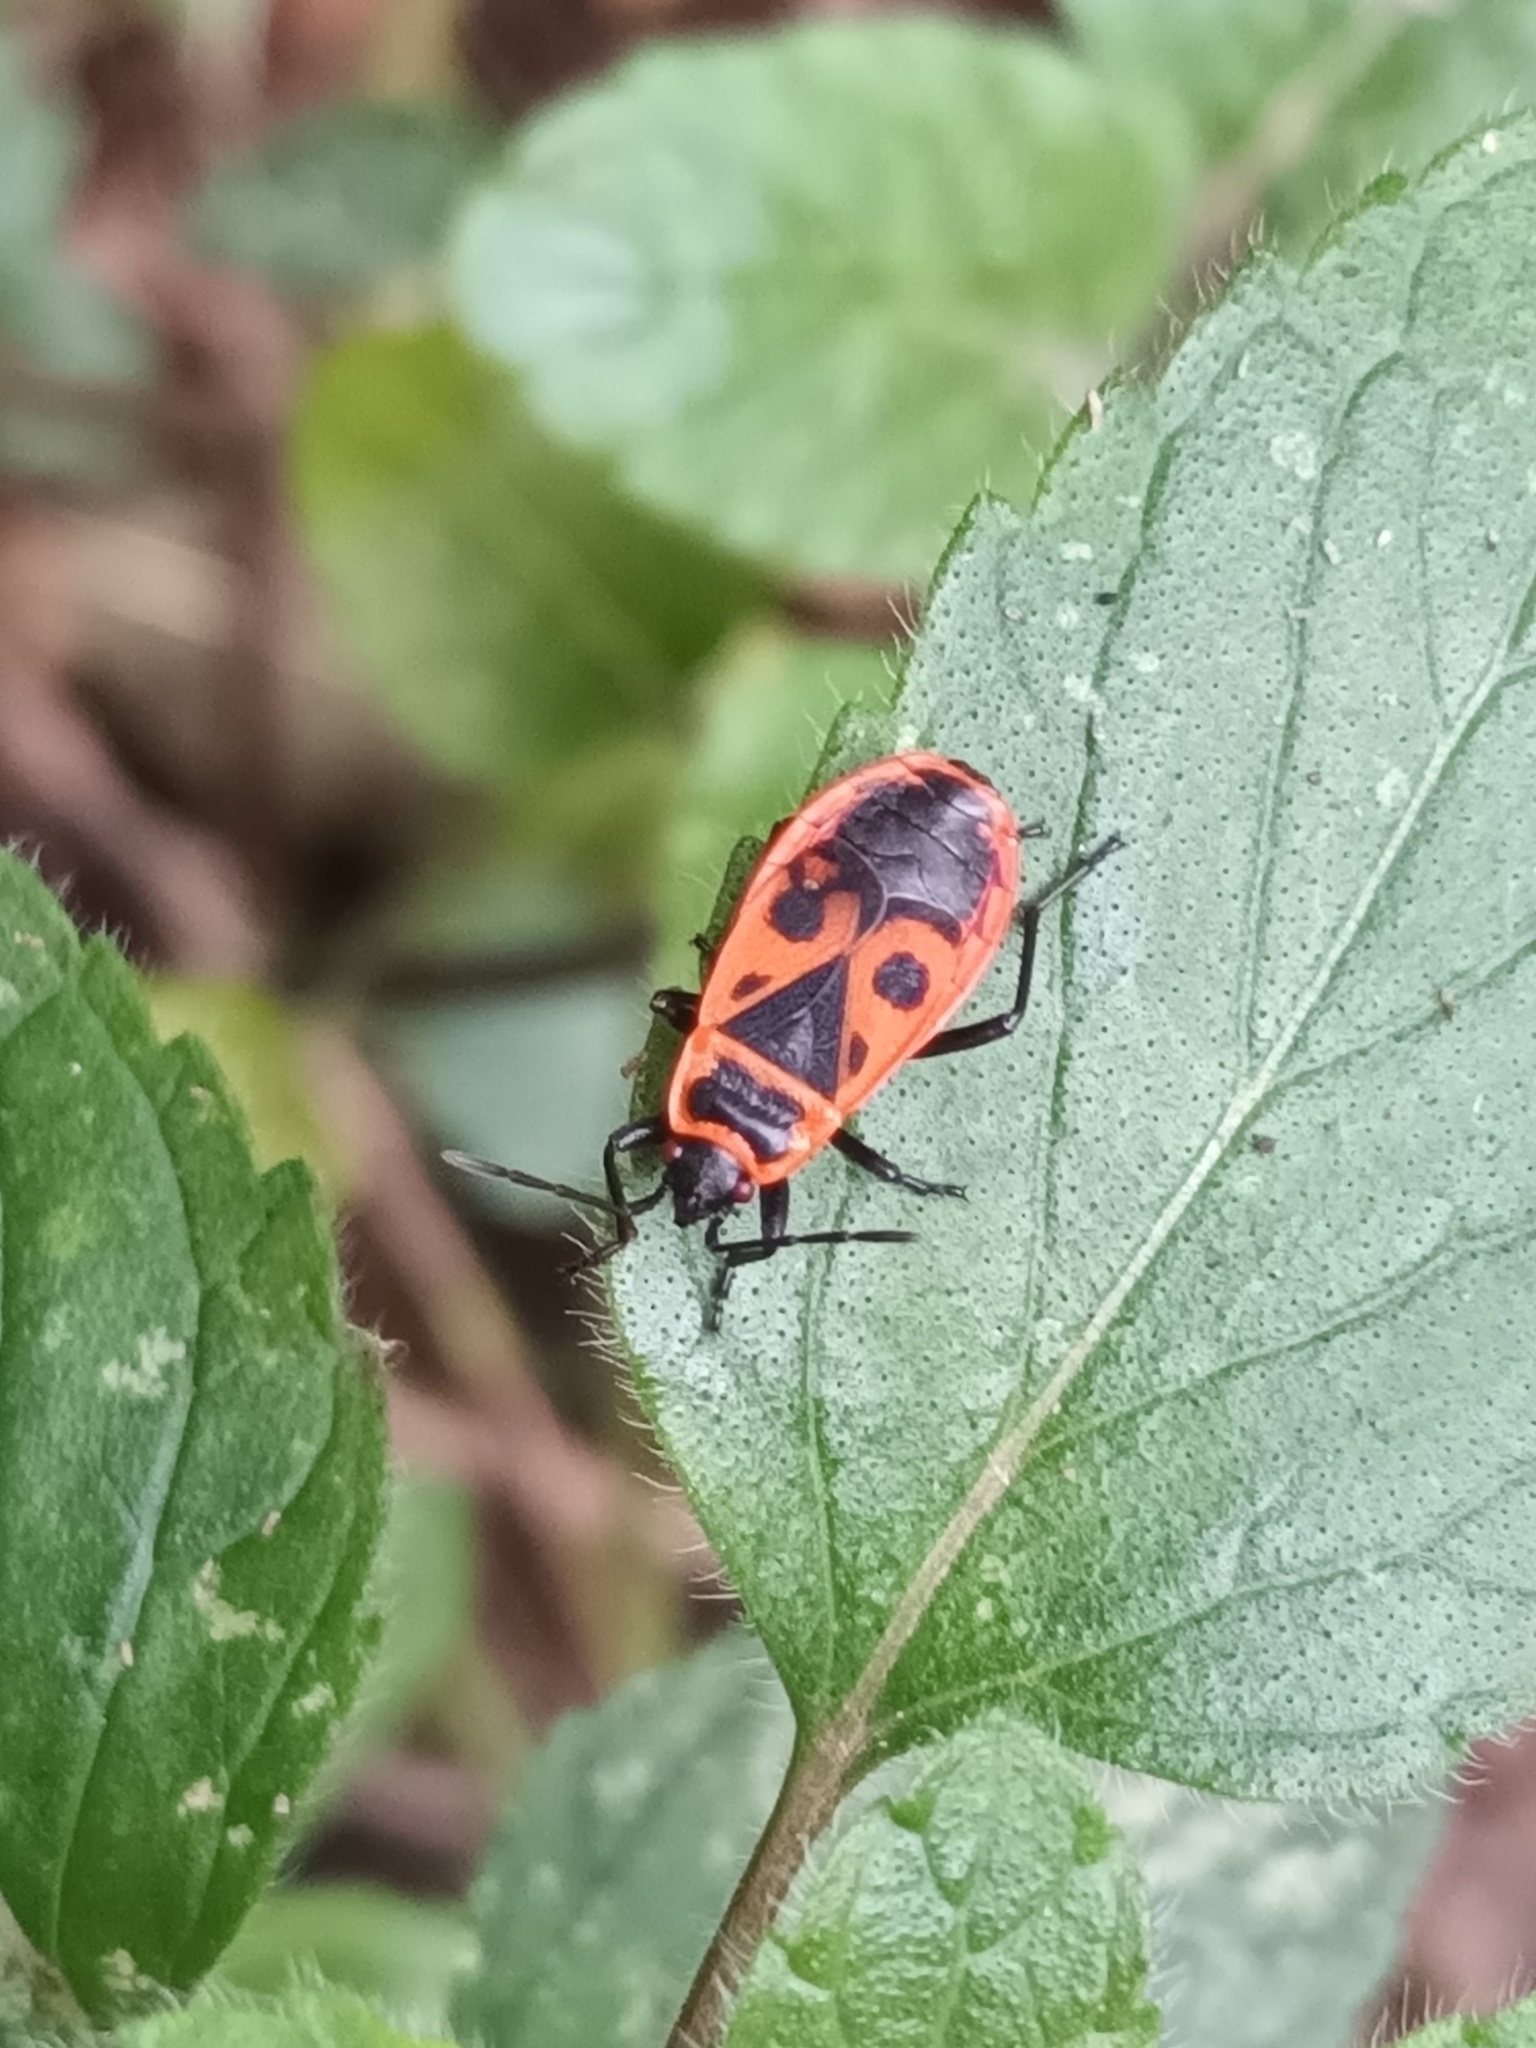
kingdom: Animalia
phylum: Arthropoda
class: Insecta
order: Hemiptera
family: Pyrrhocoridae
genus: Pyrrhocoris
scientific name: Pyrrhocoris apterus
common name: Firebug
